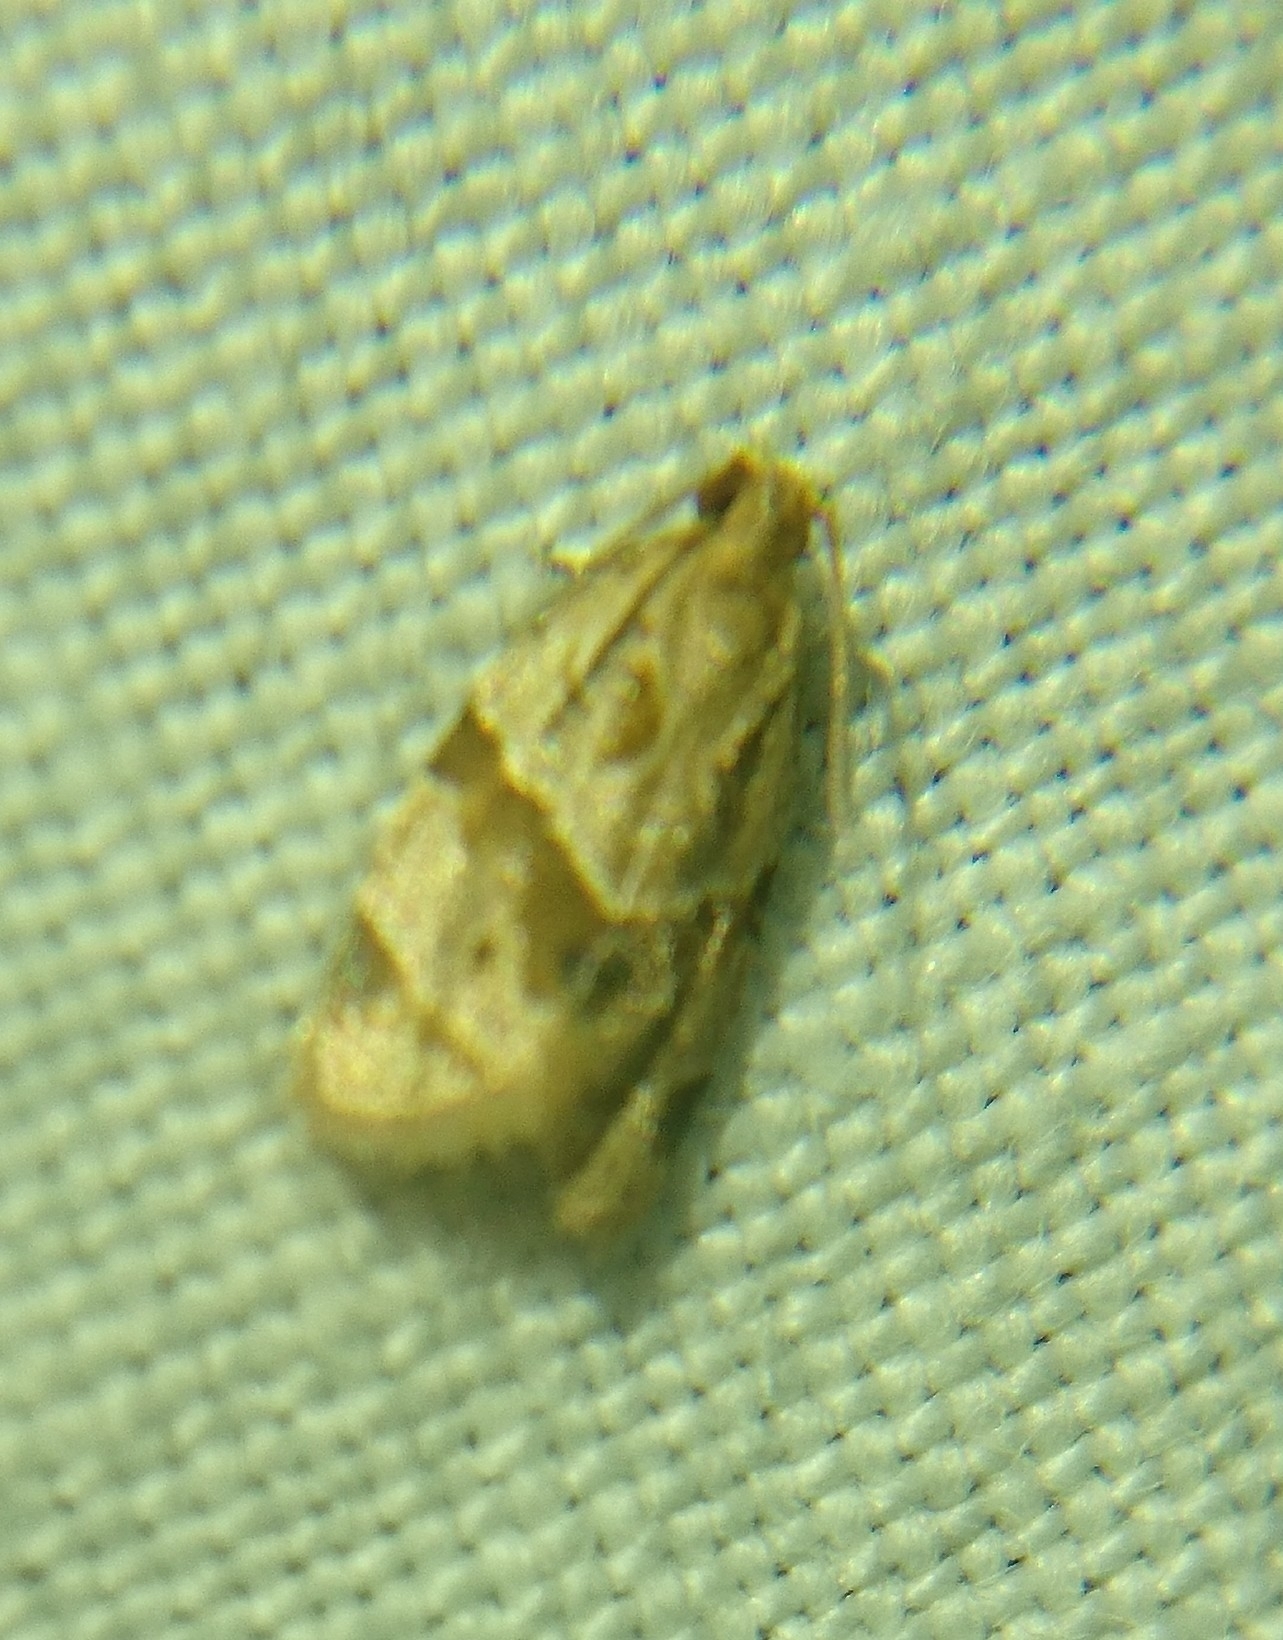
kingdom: Animalia
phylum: Arthropoda
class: Insecta
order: Lepidoptera
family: Tortricidae
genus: Clepsis
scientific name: Clepsis peritana
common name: Garden tortrix
